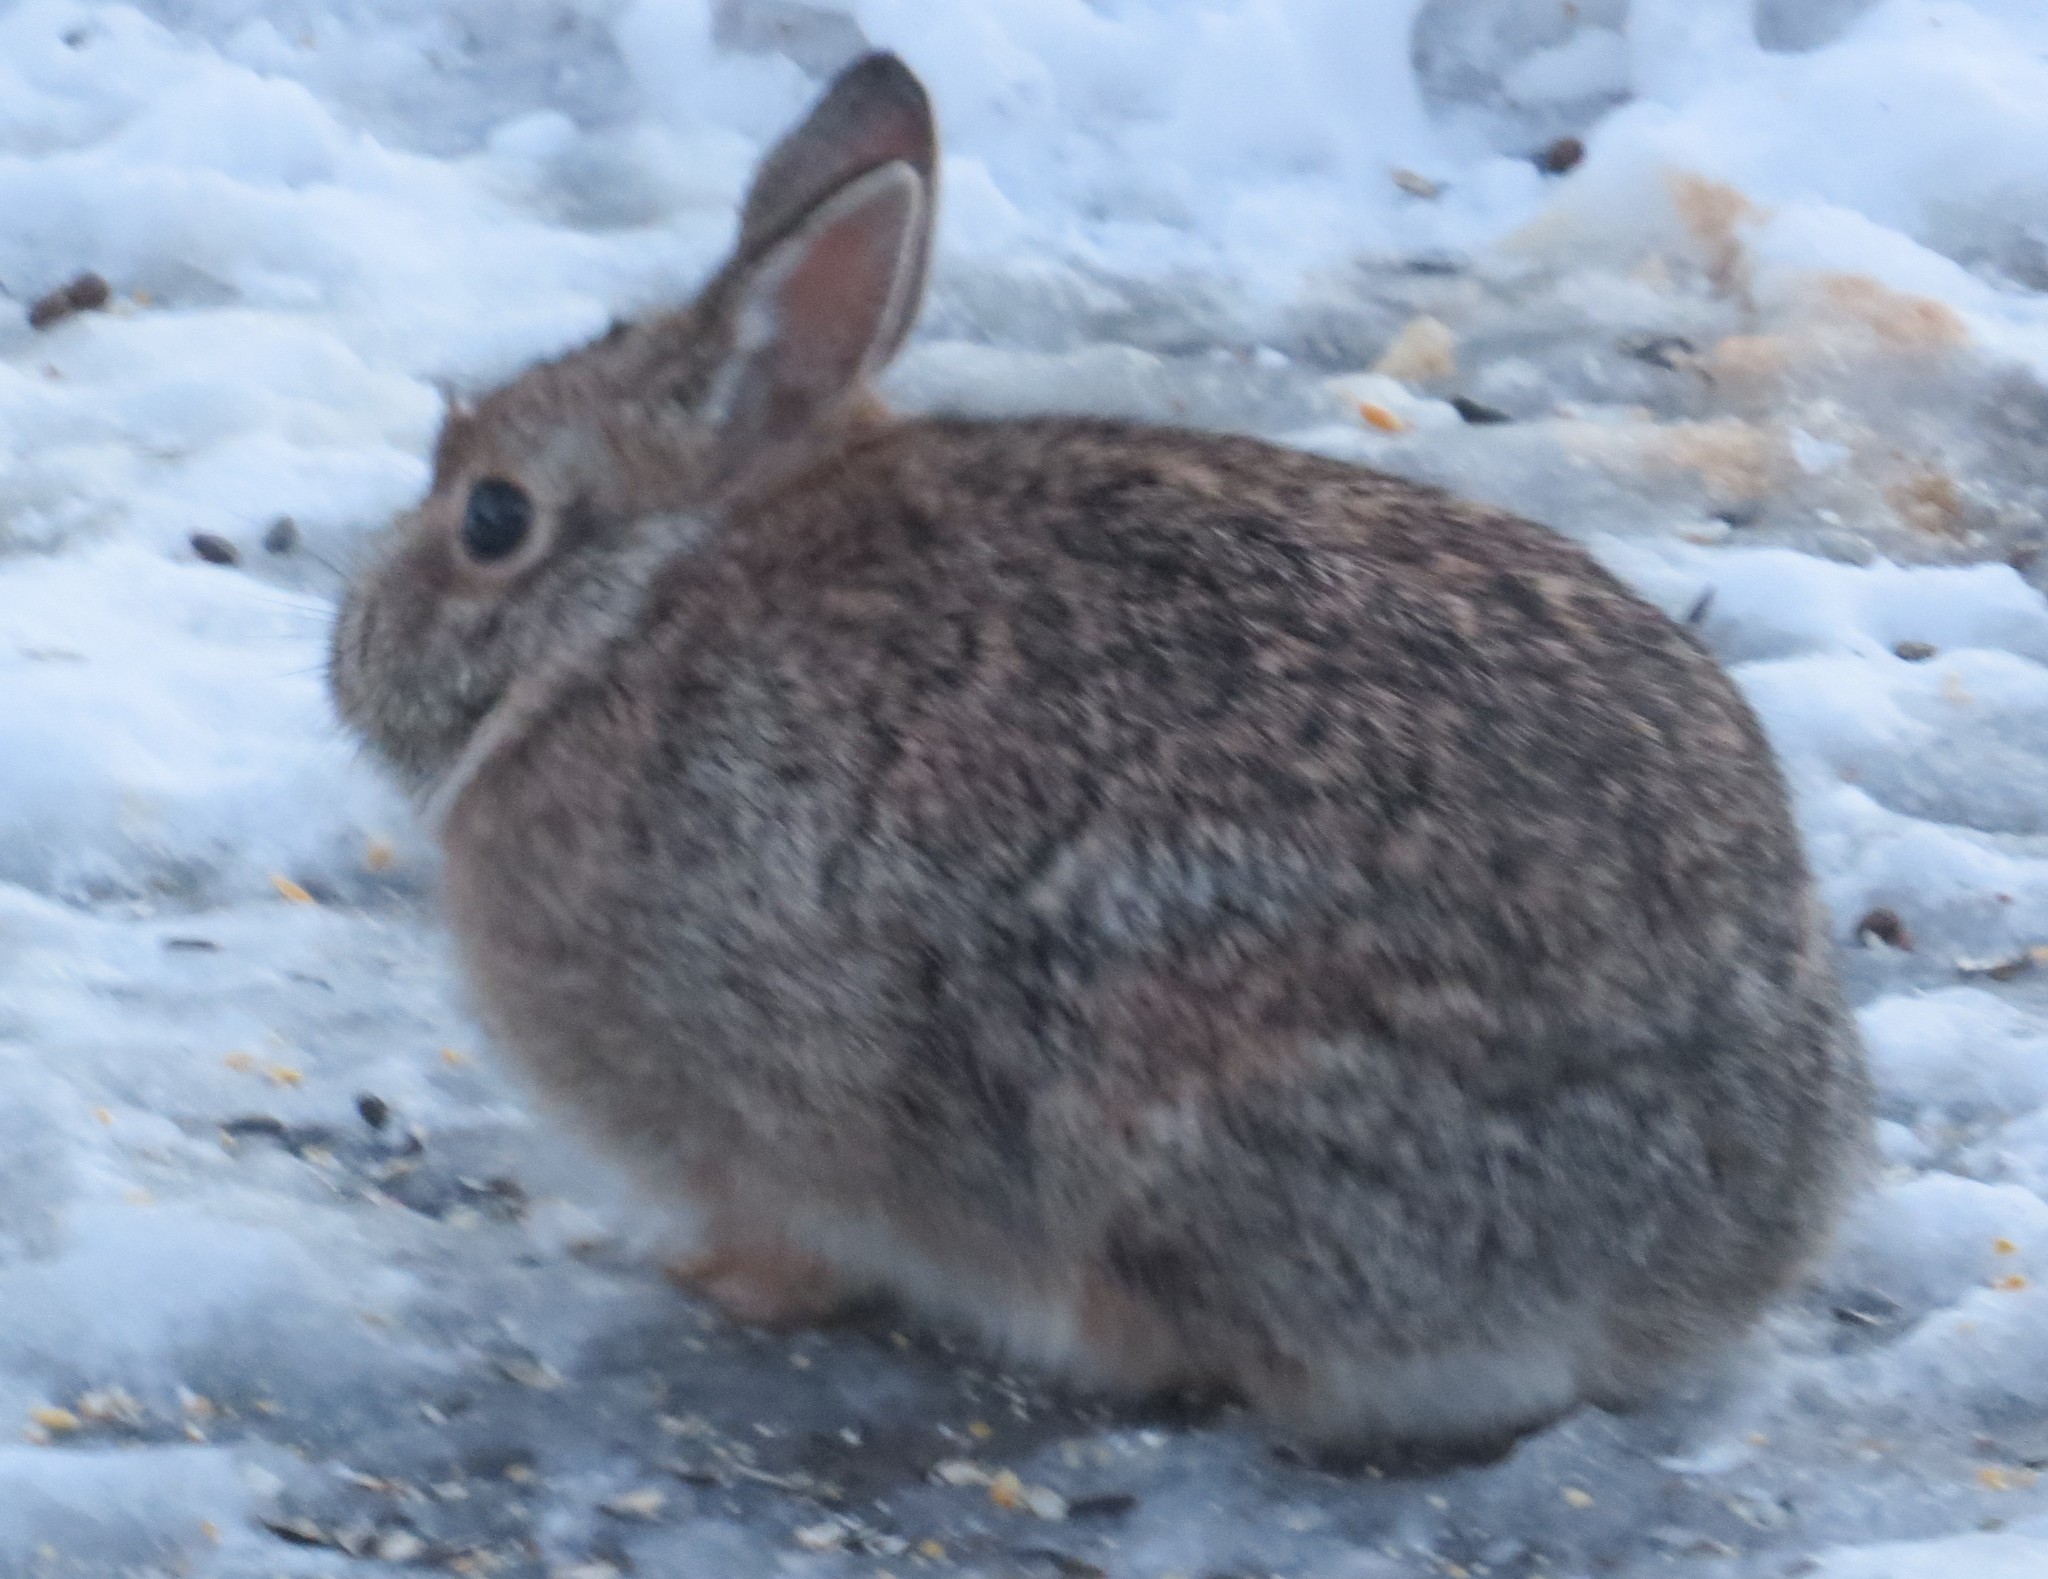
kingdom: Animalia
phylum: Chordata
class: Mammalia
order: Lagomorpha
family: Leporidae
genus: Sylvilagus
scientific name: Sylvilagus floridanus
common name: Eastern cottontail
